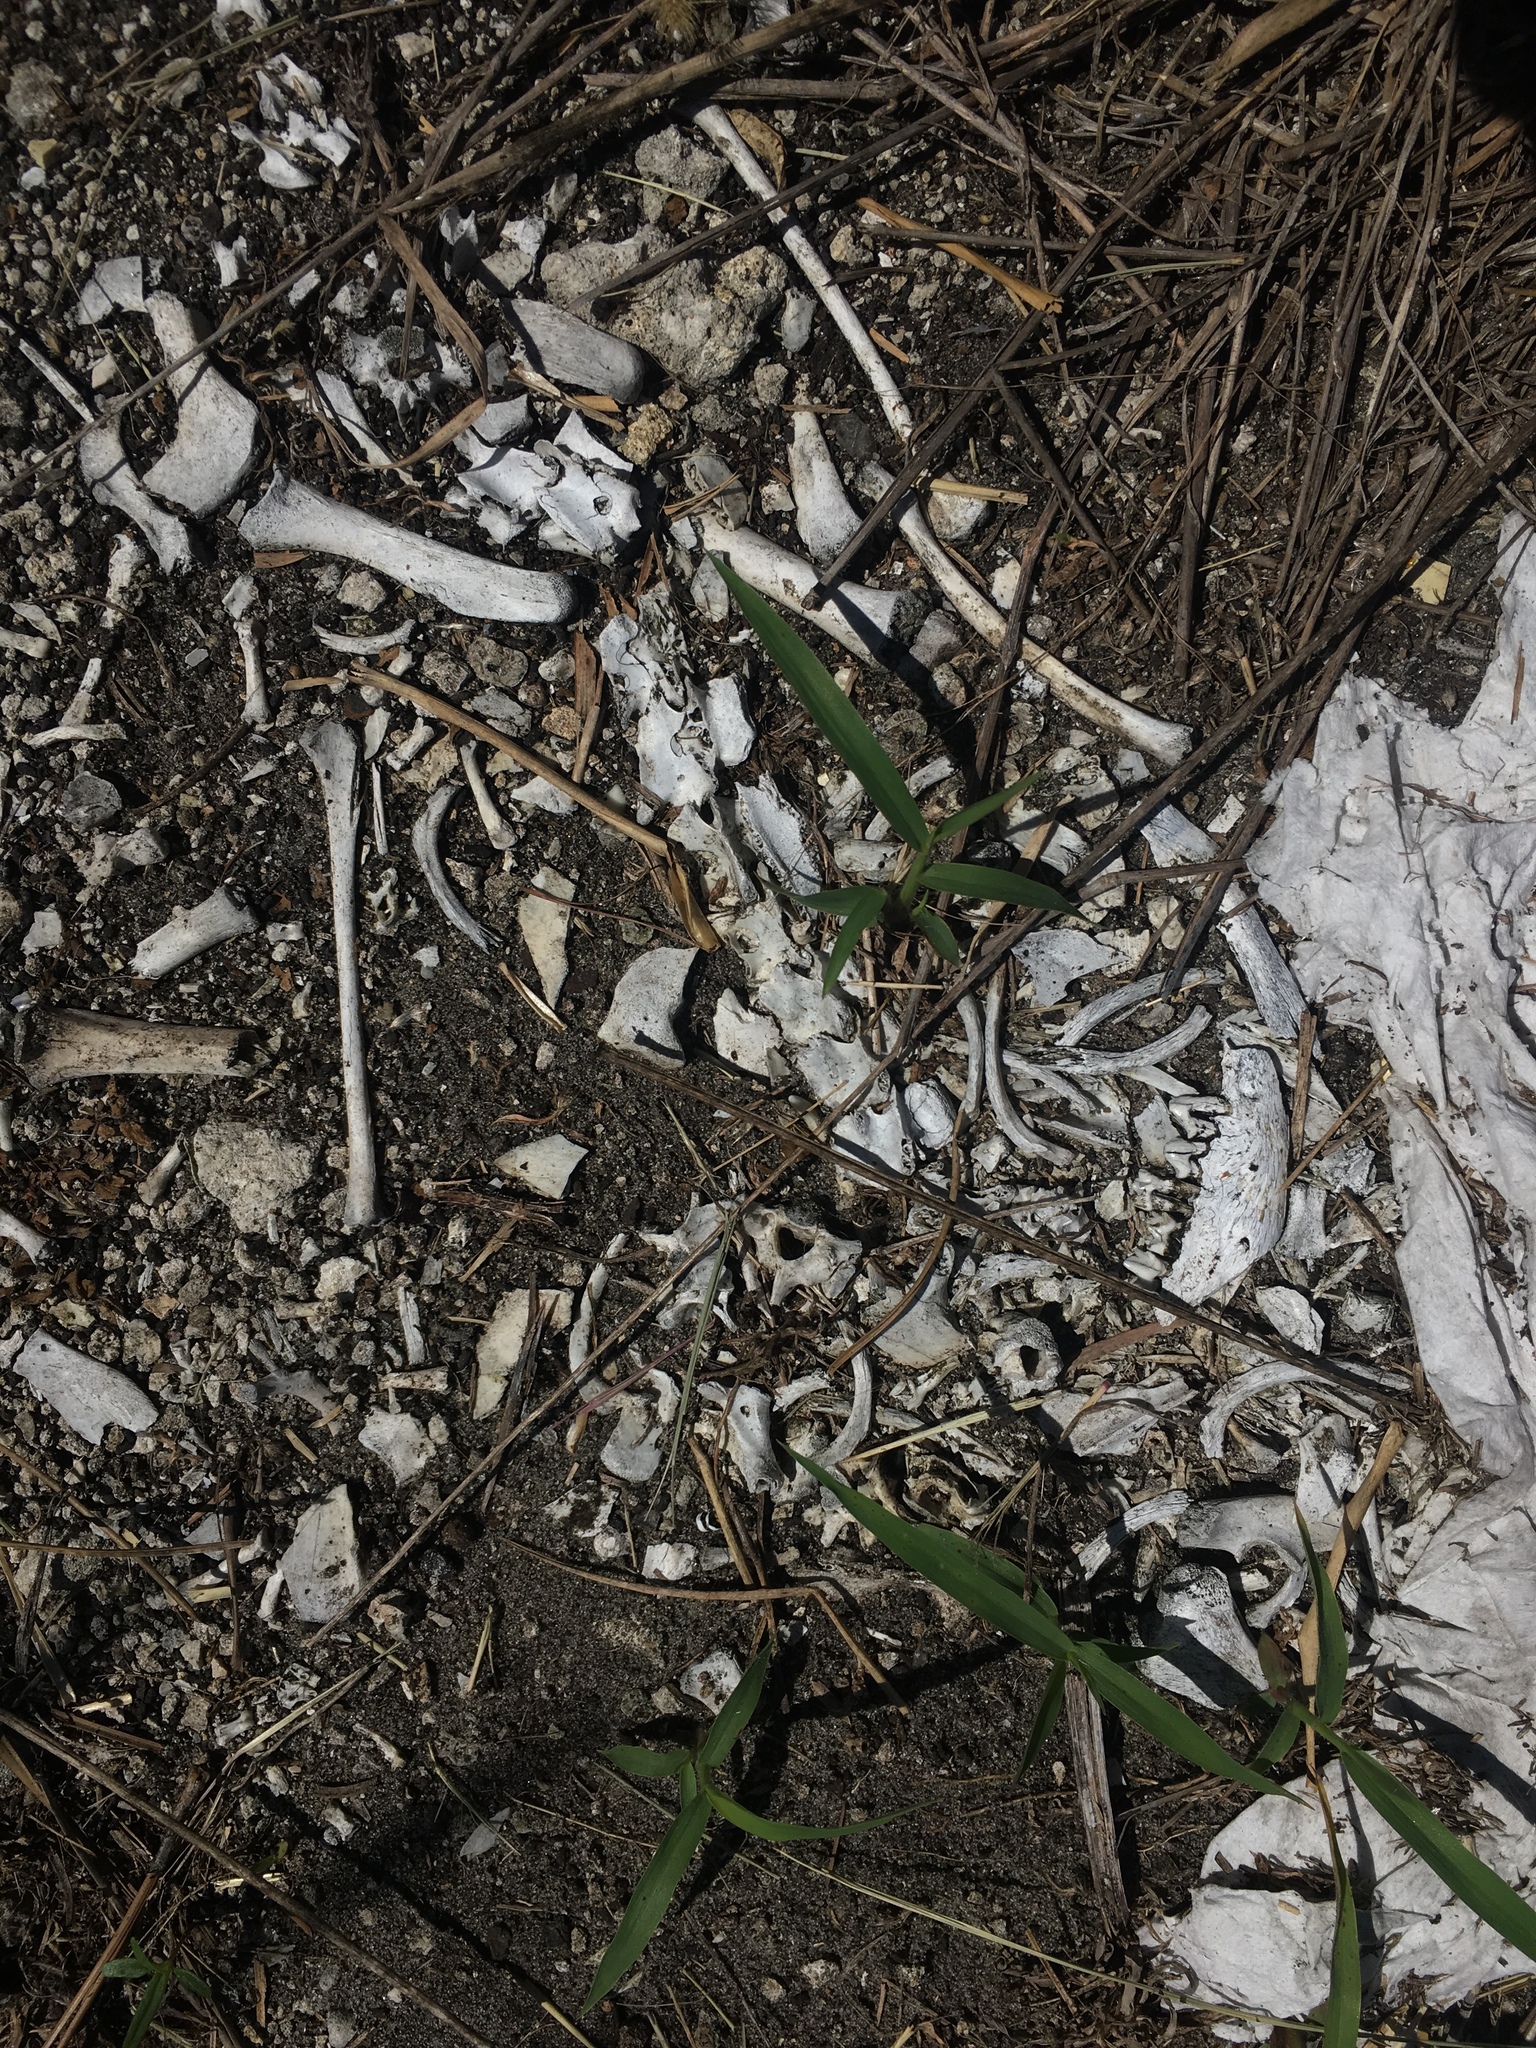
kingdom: Animalia
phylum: Chordata
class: Mammalia
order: Didelphimorphia
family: Didelphidae
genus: Didelphis
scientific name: Didelphis virginiana
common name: Virginia opossum
